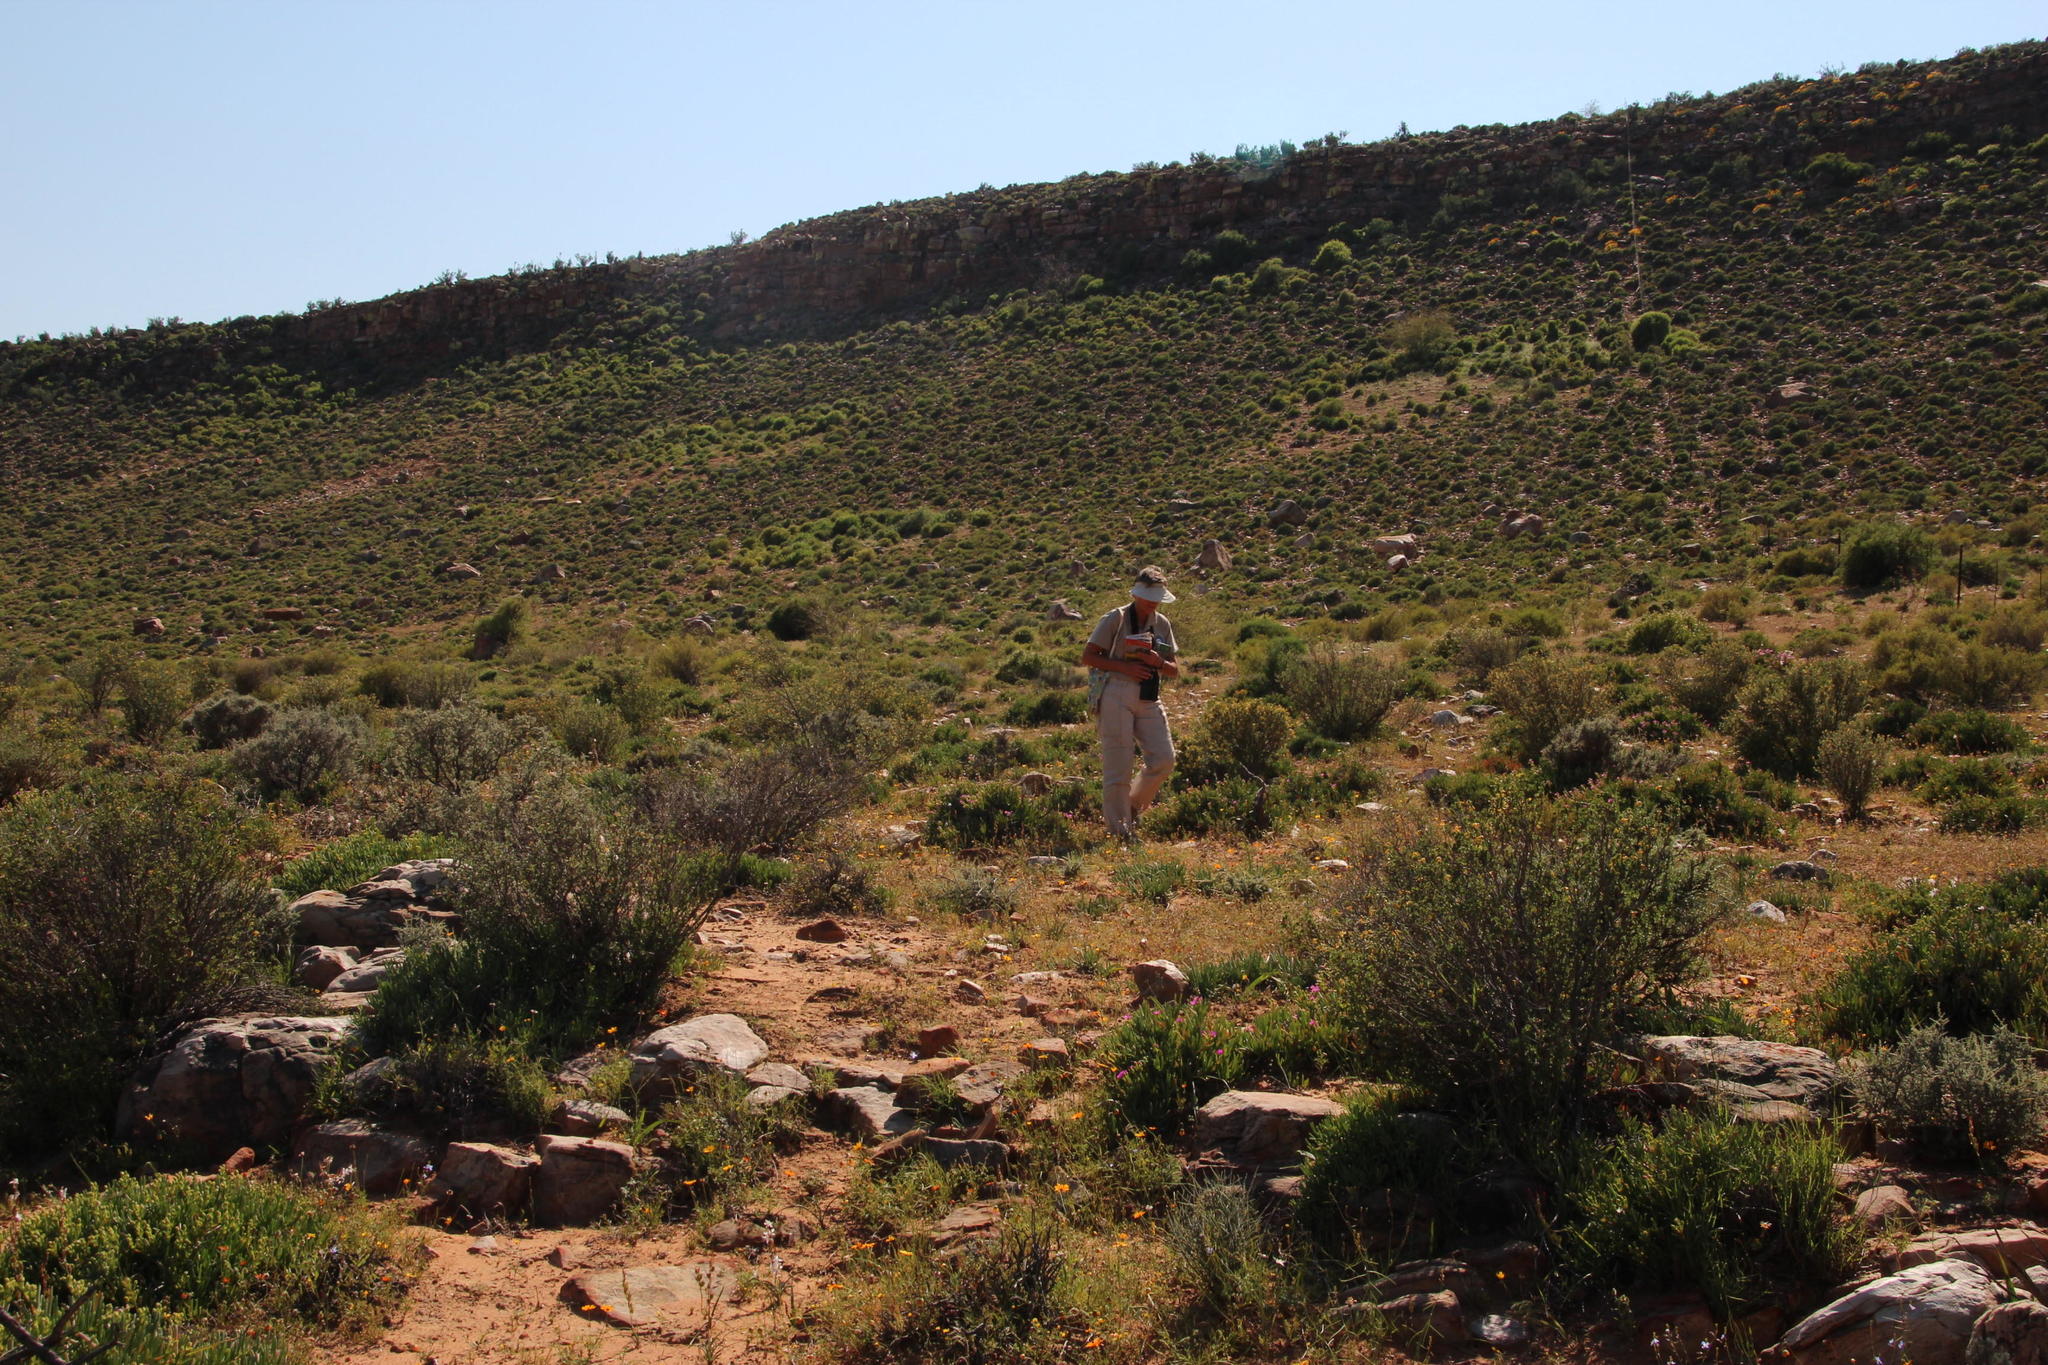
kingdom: Animalia
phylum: Arthropoda
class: Insecta
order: Blattodea
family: Hodotermitidae
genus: Microhodotermes
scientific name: Microhodotermes viator
